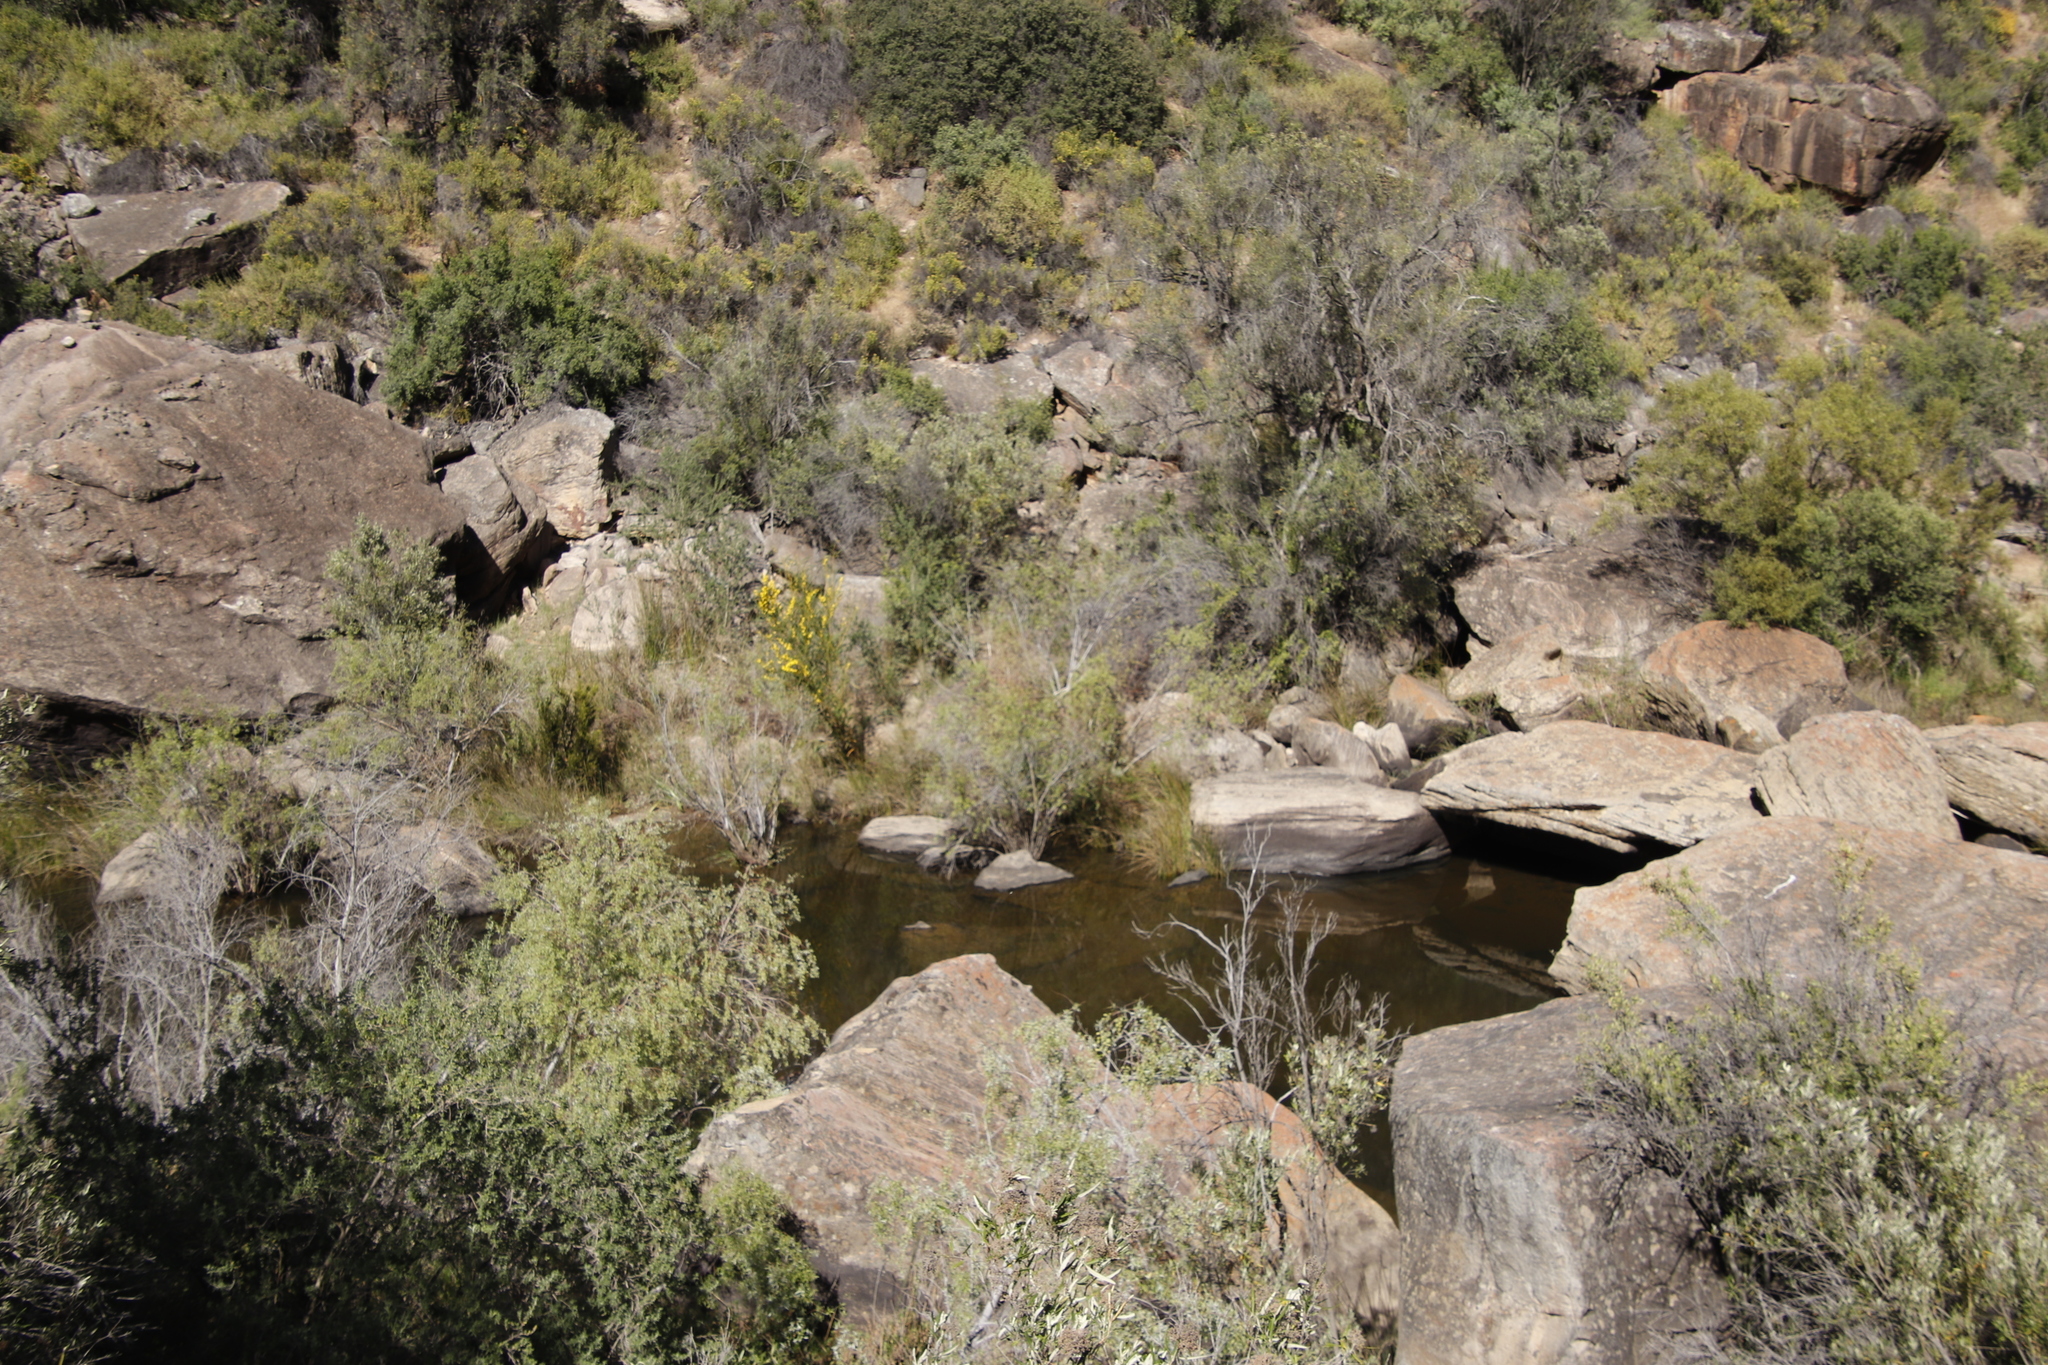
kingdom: Plantae
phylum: Tracheophyta
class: Magnoliopsida
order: Fabales
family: Fabaceae
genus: Acacia
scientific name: Acacia saligna
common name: Orange wattle
